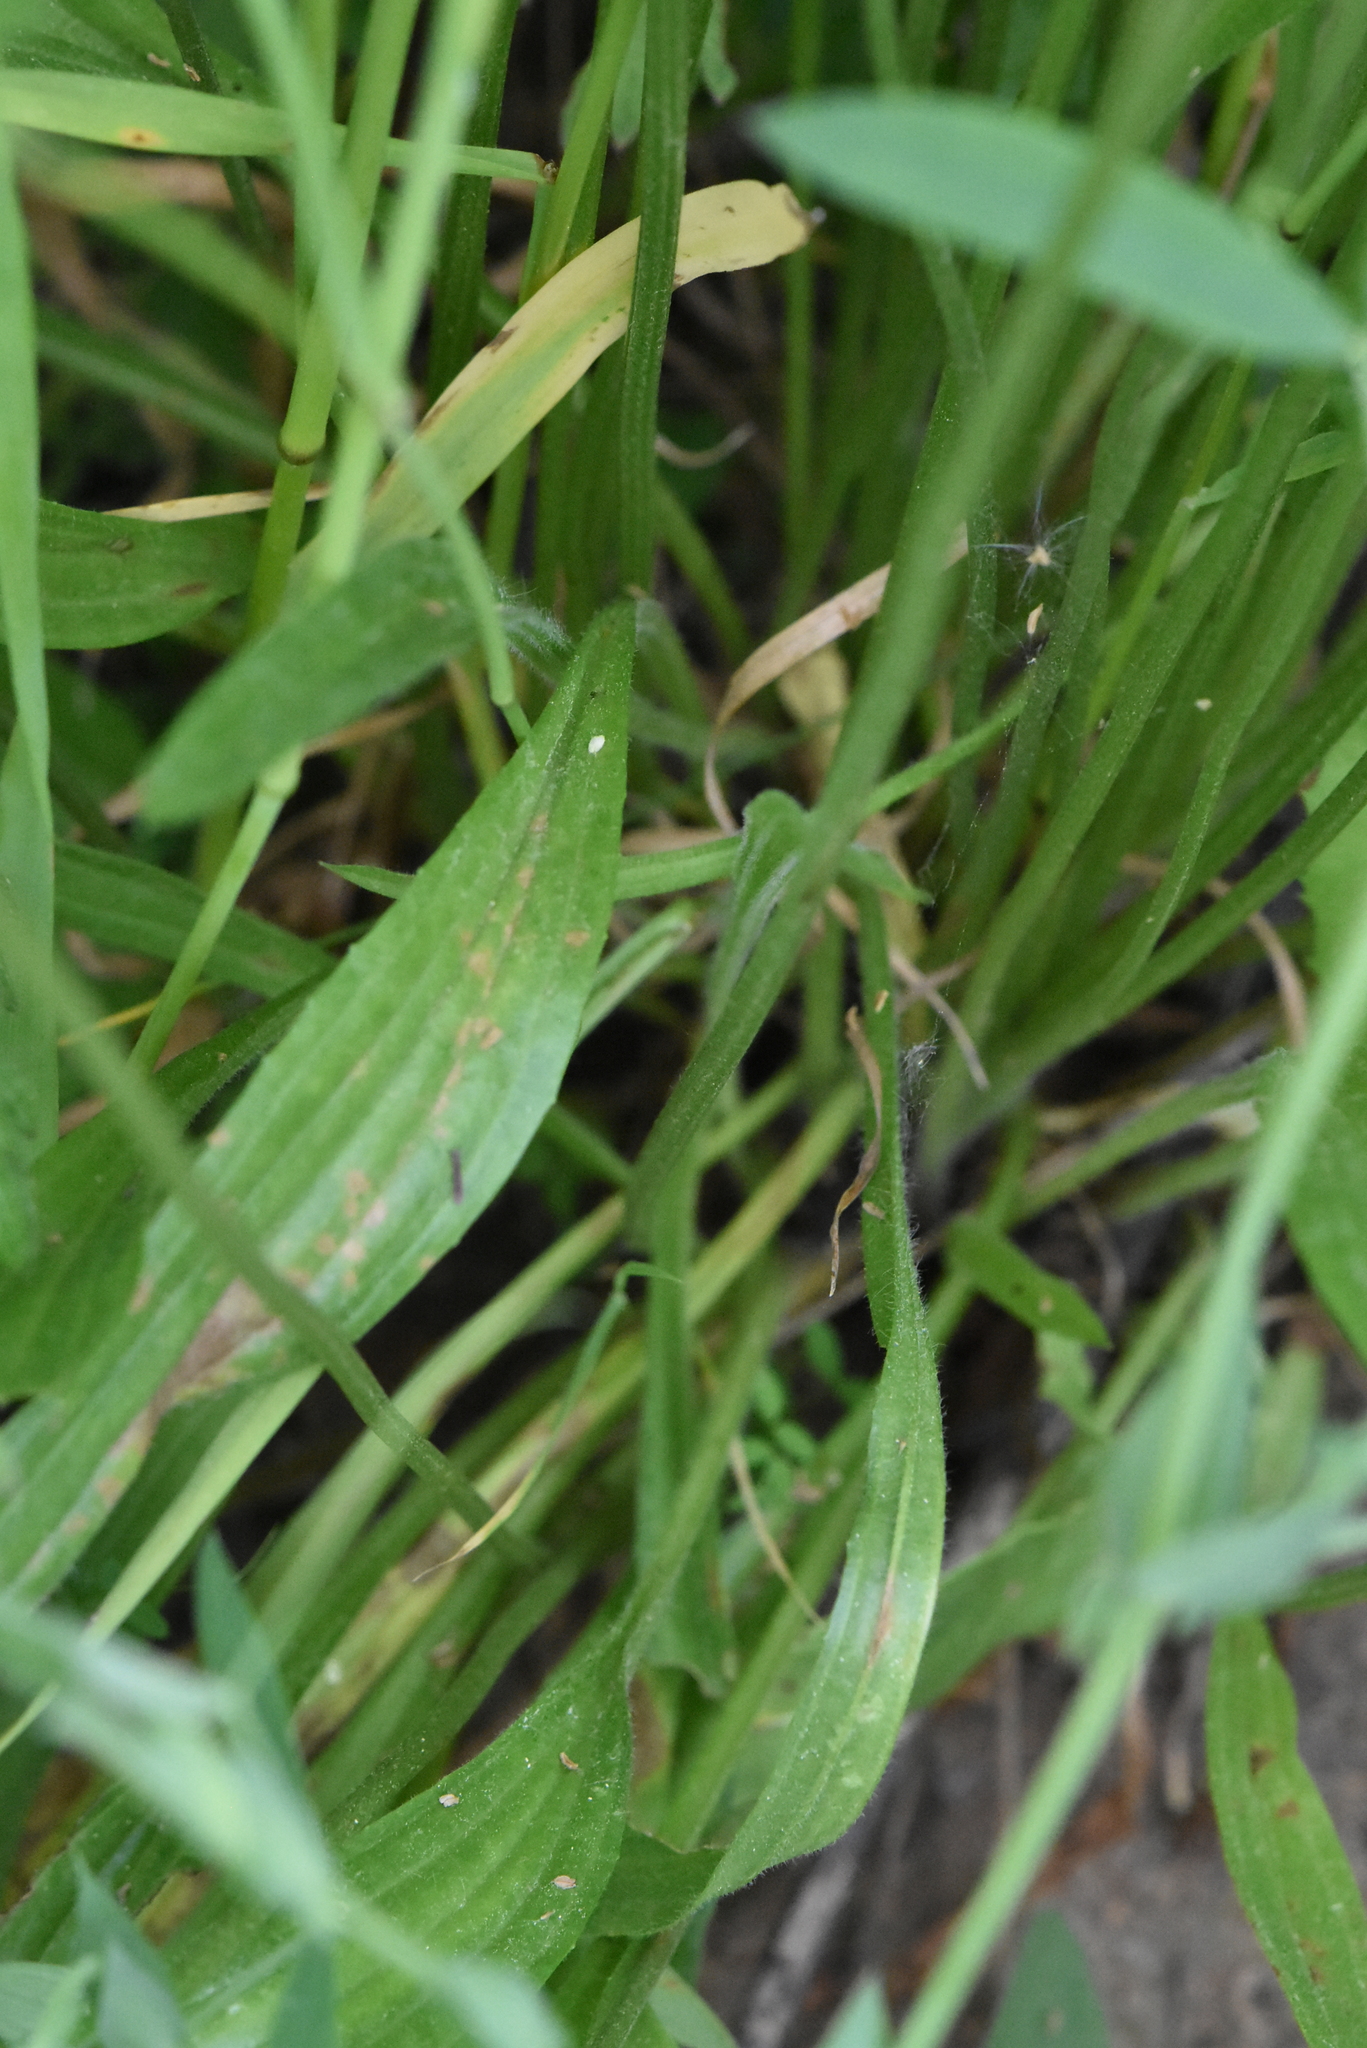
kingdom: Plantae
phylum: Tracheophyta
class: Magnoliopsida
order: Lamiales
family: Plantaginaceae
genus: Plantago
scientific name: Plantago lanceolata
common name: Ribwort plantain
